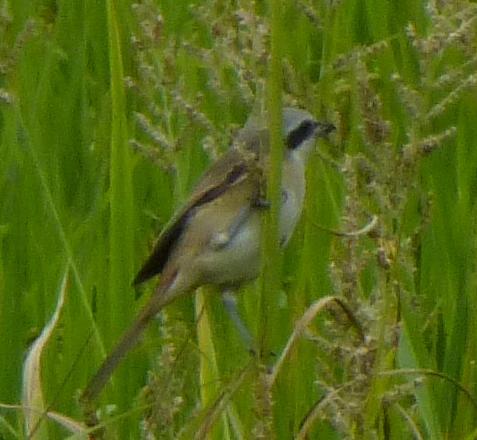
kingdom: Animalia
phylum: Chordata
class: Aves
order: Passeriformes
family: Laniidae
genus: Lanius
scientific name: Lanius cristatus
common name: Brown shrike
